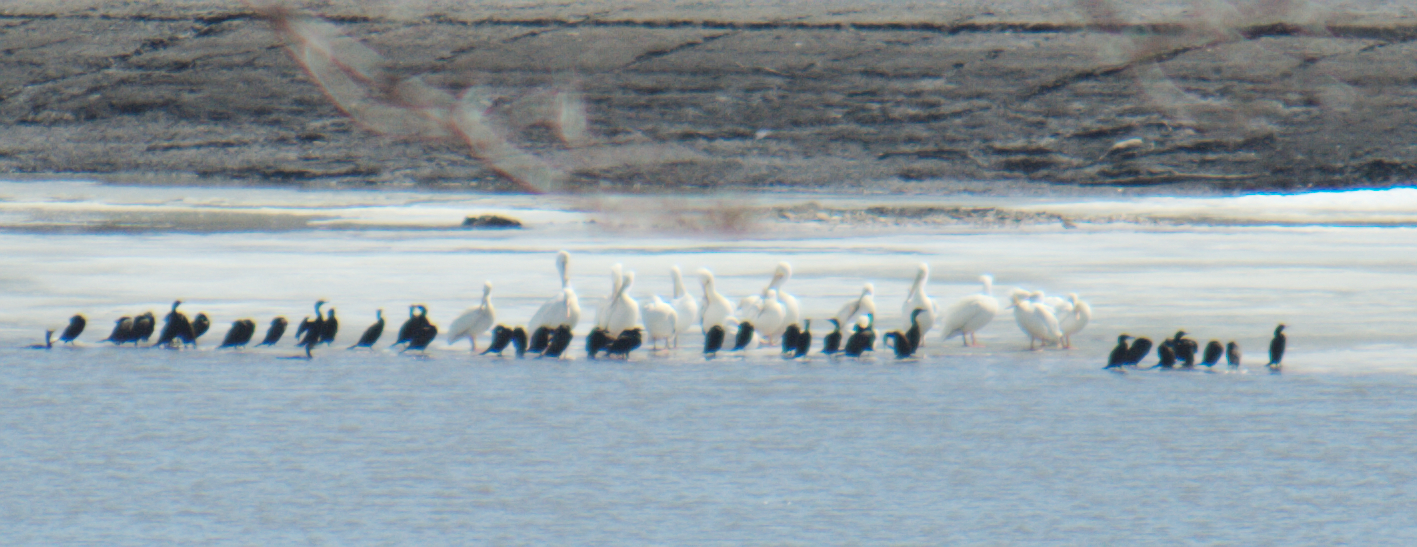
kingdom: Animalia
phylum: Chordata
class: Aves
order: Pelecaniformes
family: Pelecanidae
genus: Pelecanus
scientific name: Pelecanus erythrorhynchos
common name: American white pelican
